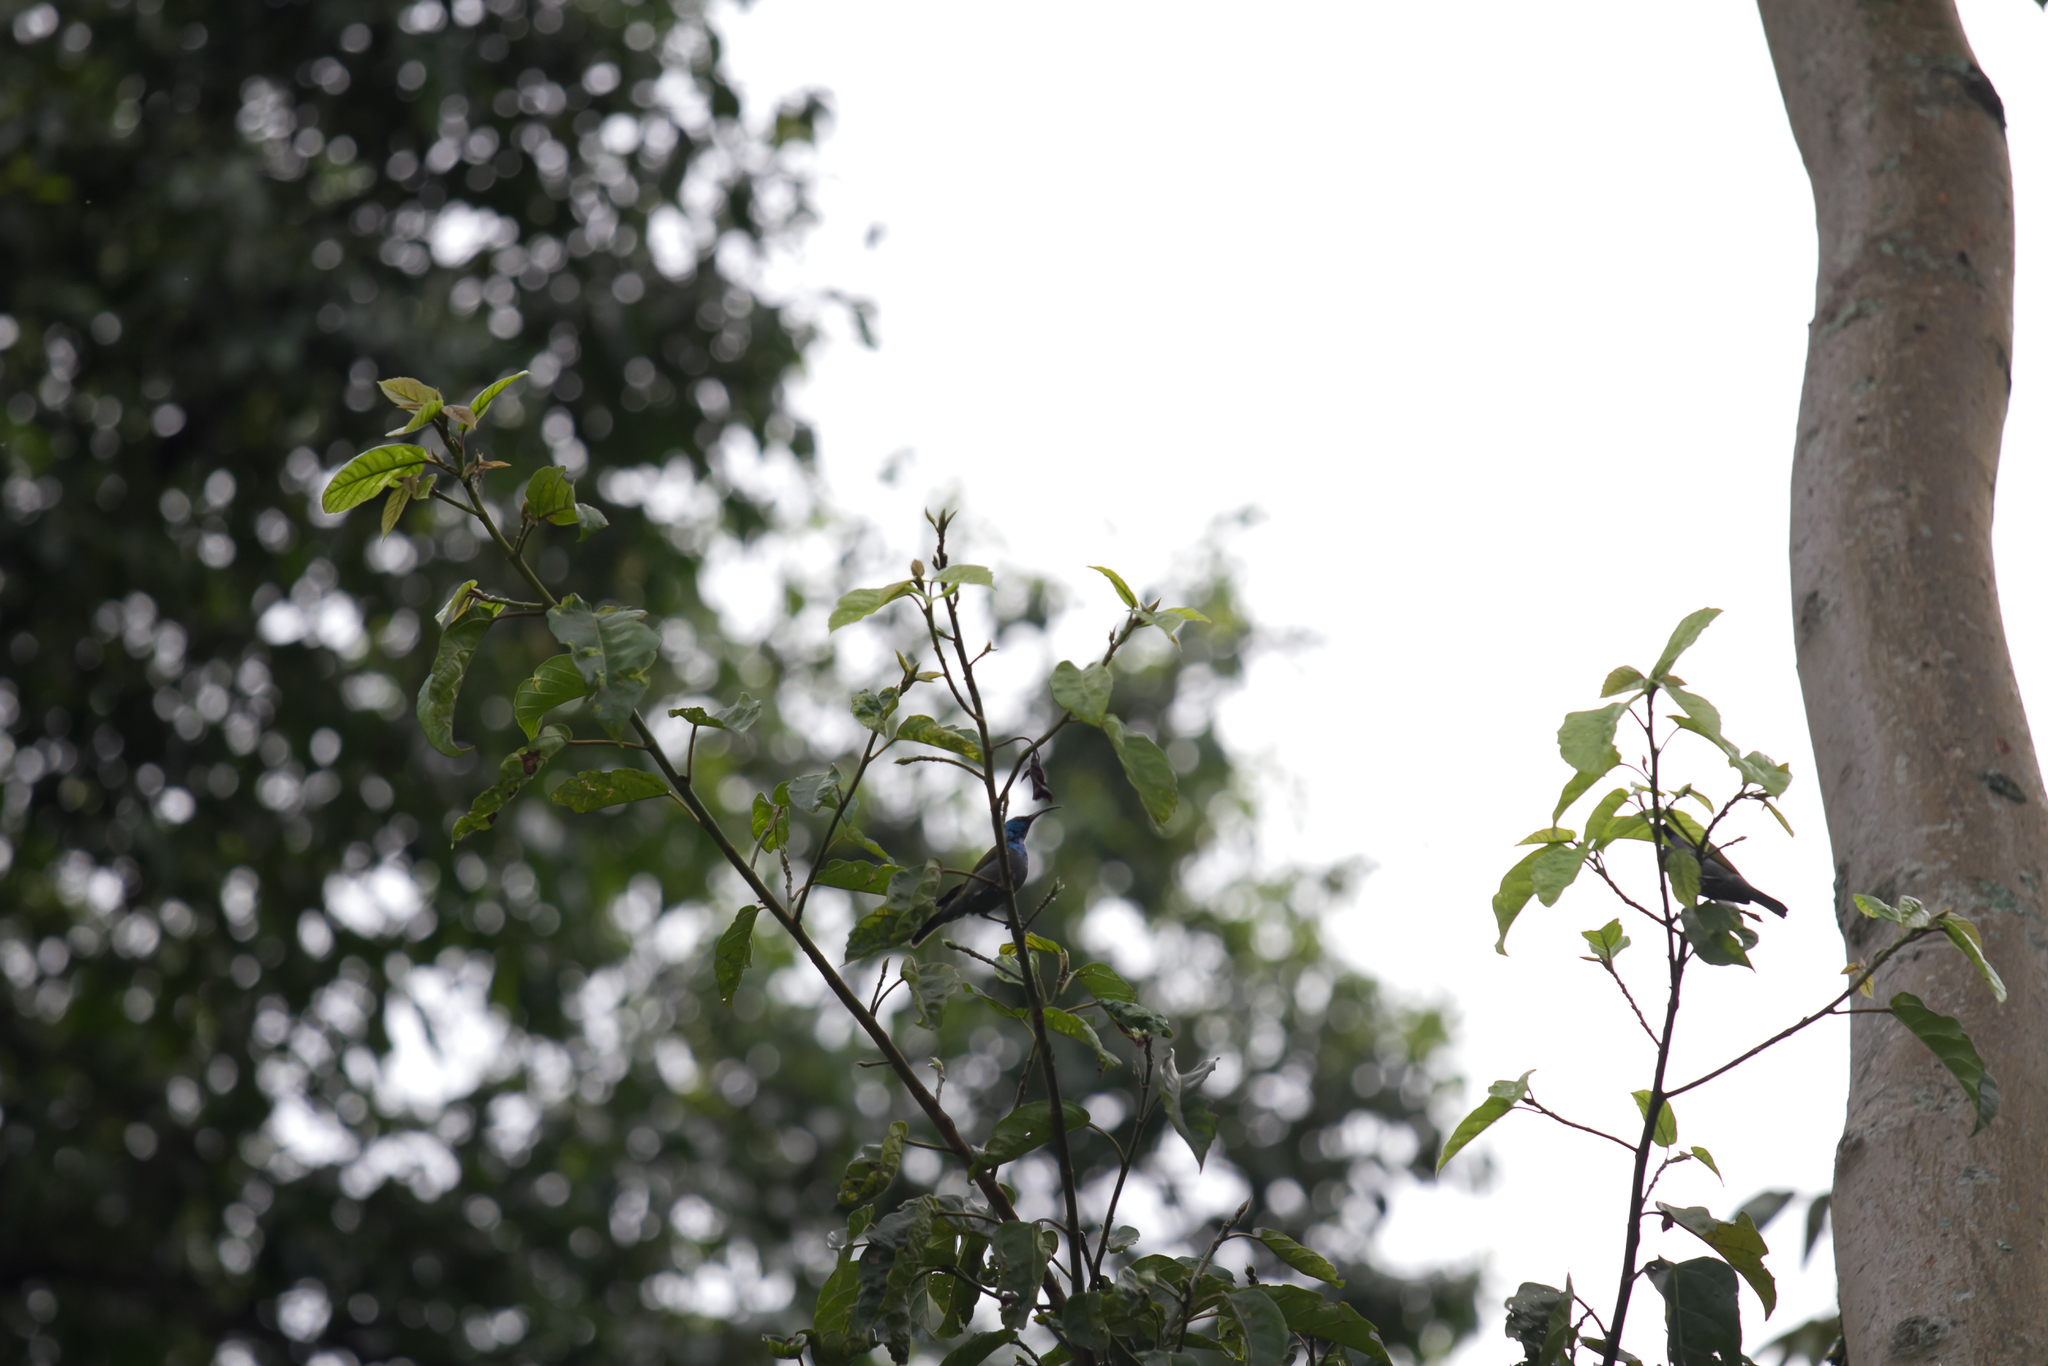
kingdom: Animalia
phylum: Chordata
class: Aves
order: Passeriformes
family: Nectariniidae
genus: Cyanomitra
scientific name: Cyanomitra verticalis
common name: Green-headed sunbird
